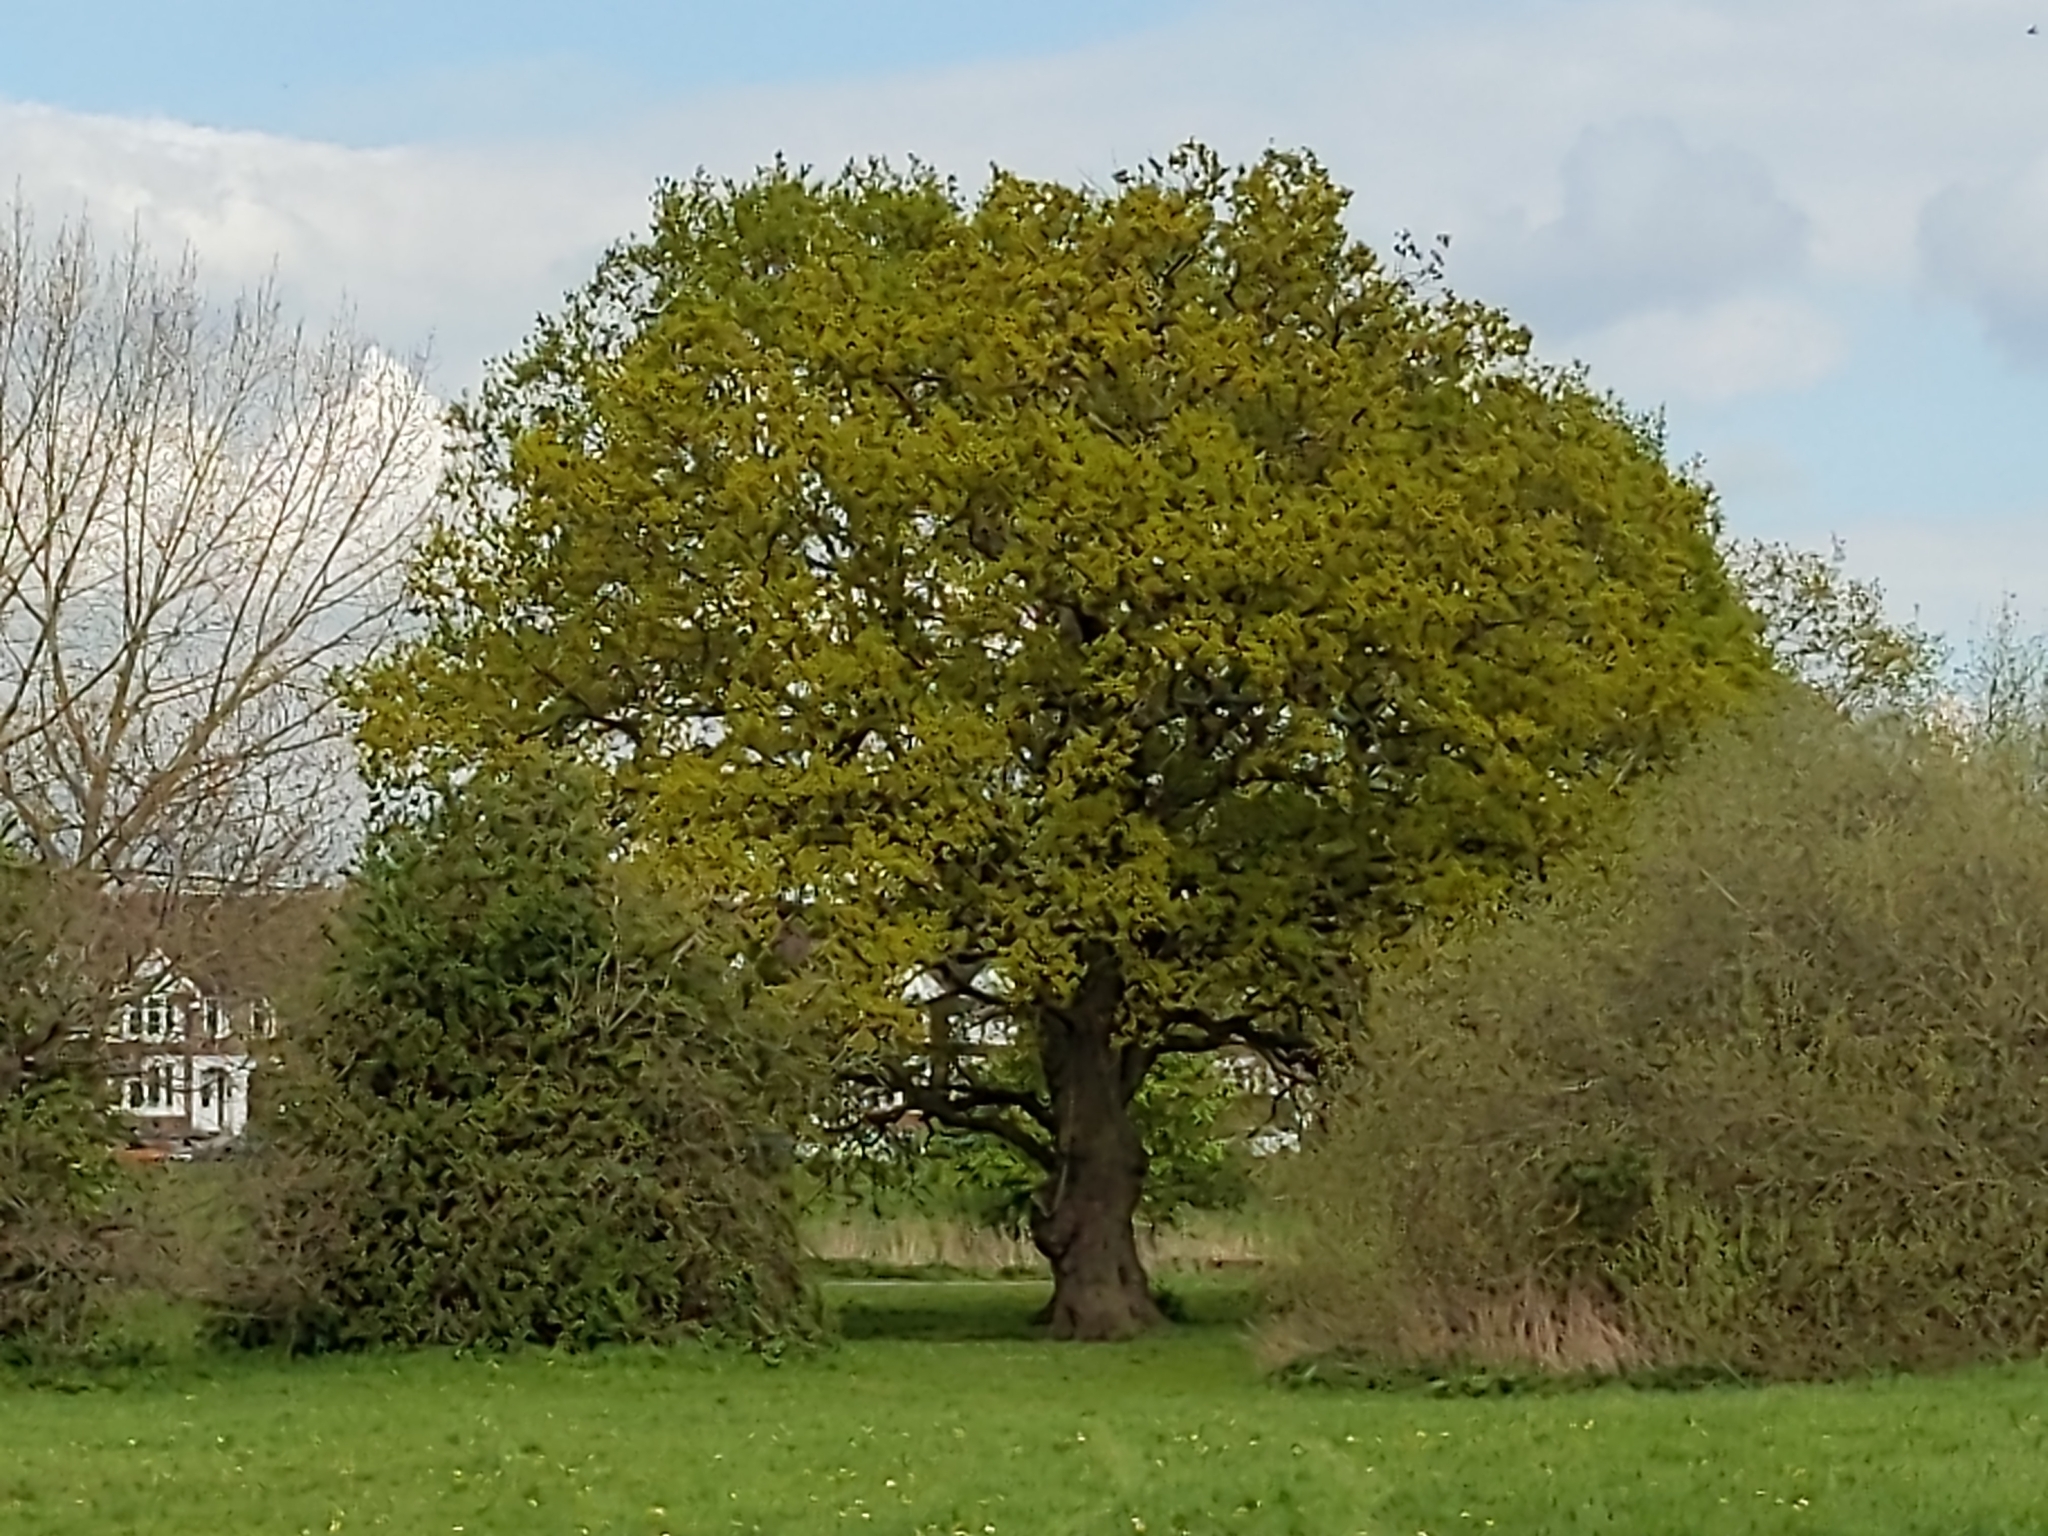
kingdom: Plantae
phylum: Tracheophyta
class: Magnoliopsida
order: Fagales
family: Fagaceae
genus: Quercus
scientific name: Quercus robur
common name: Pedunculate oak
